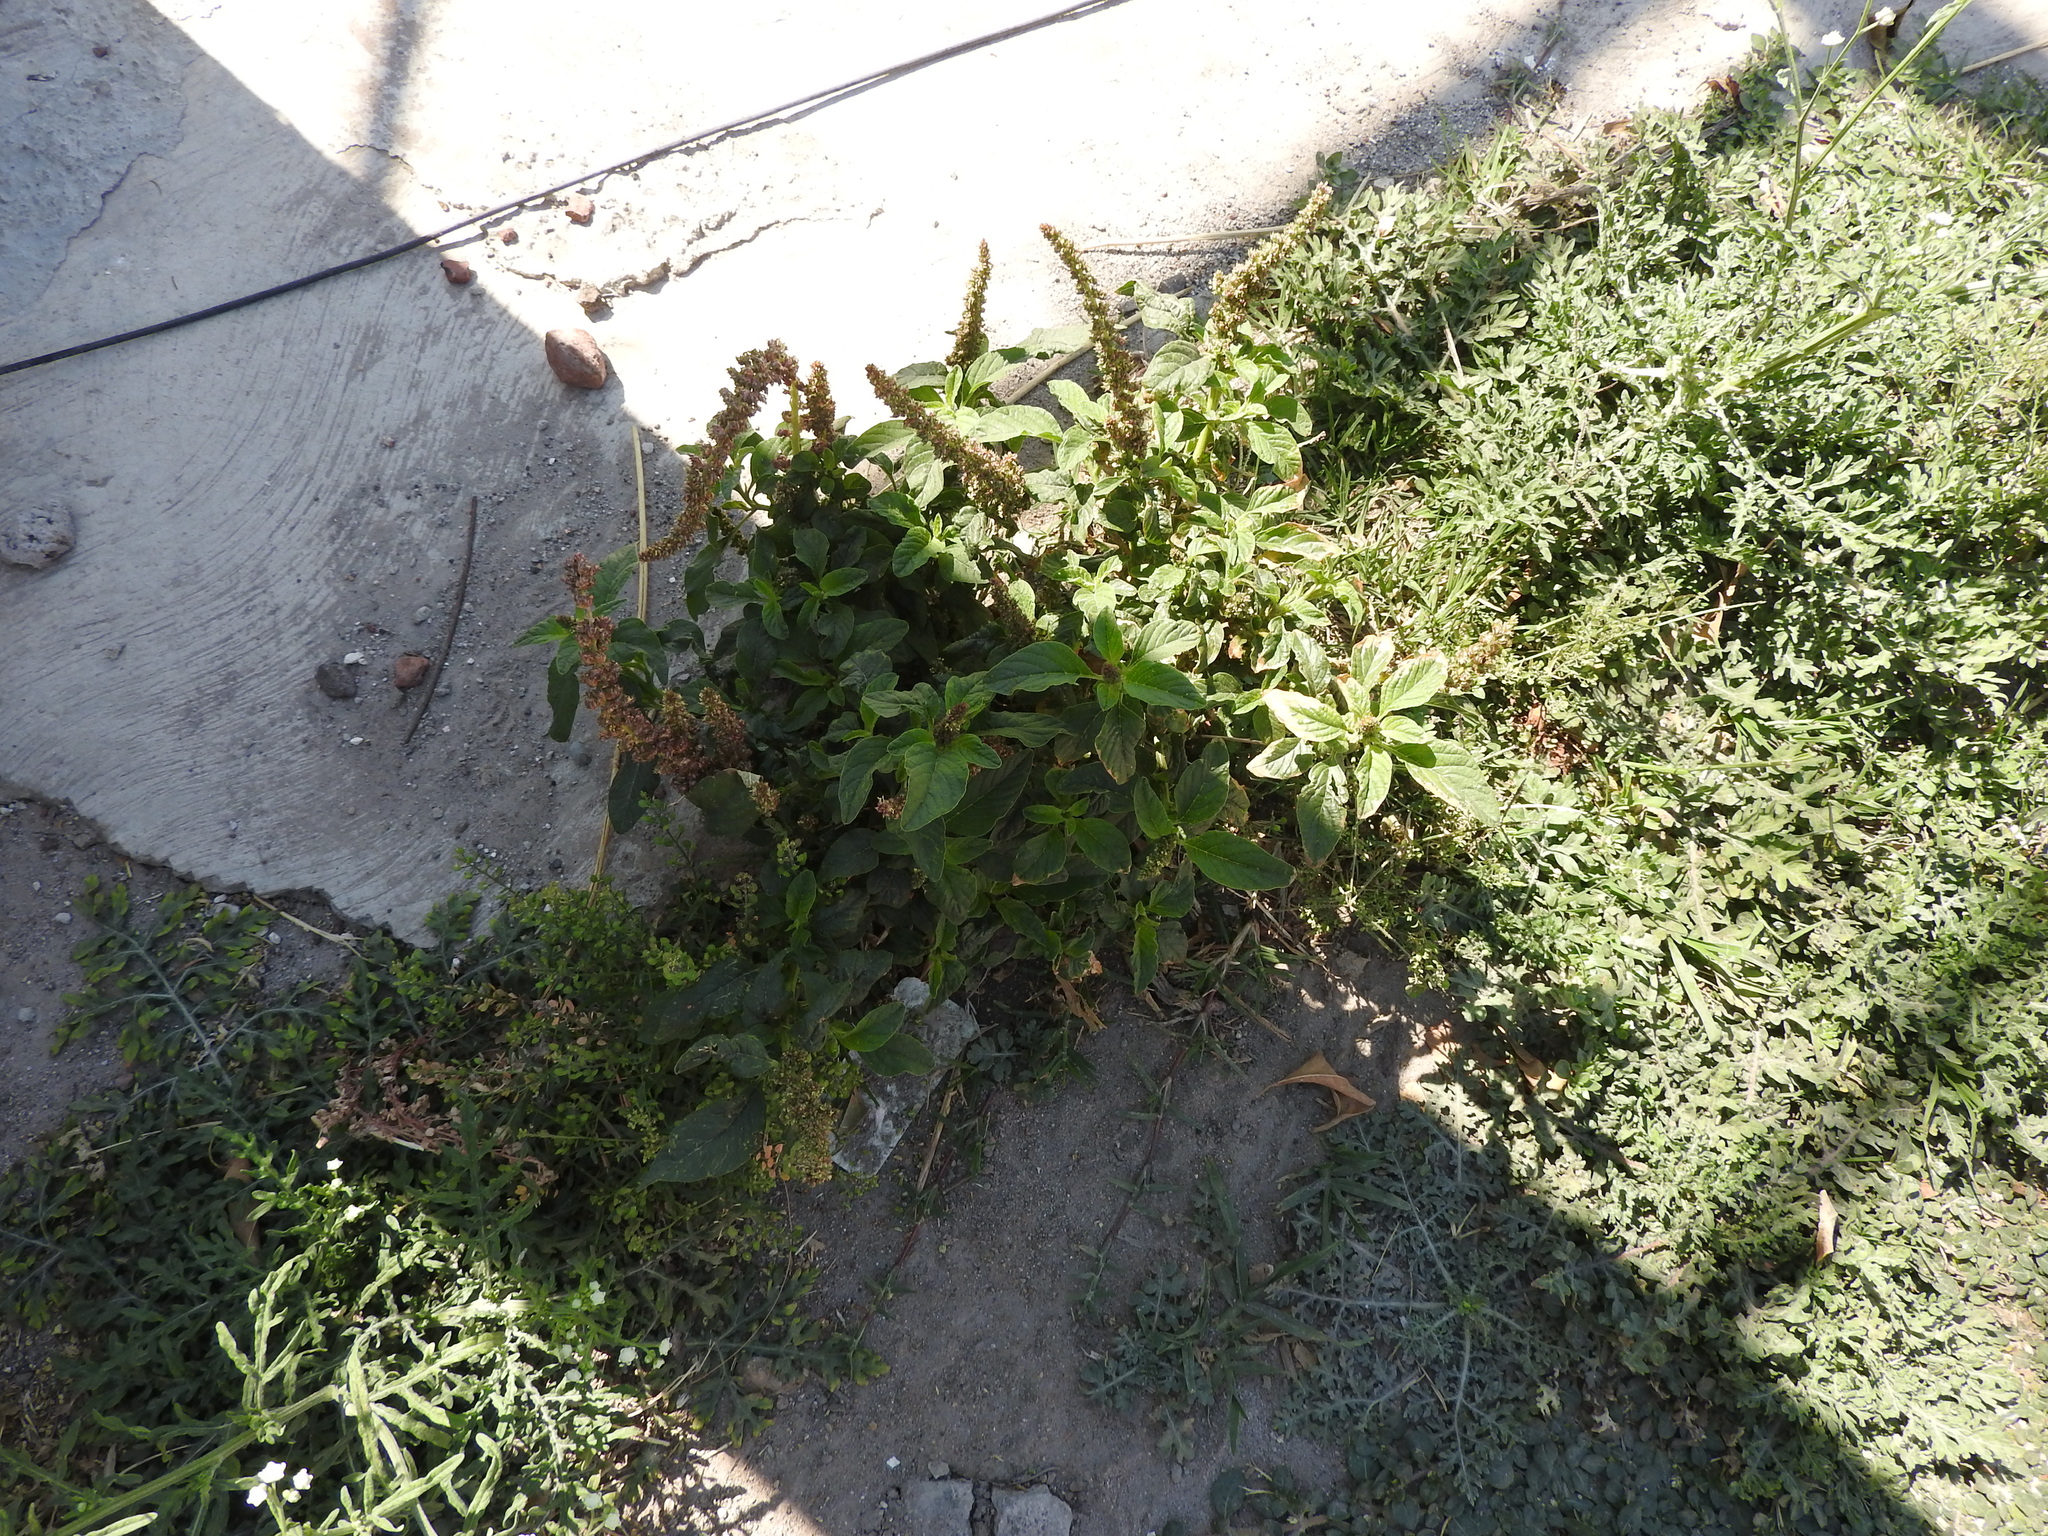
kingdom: Plantae
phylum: Tracheophyta
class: Magnoliopsida
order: Caryophyllales
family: Amaranthaceae
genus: Amaranthus
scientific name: Amaranthus hybridus
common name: Green amaranth
